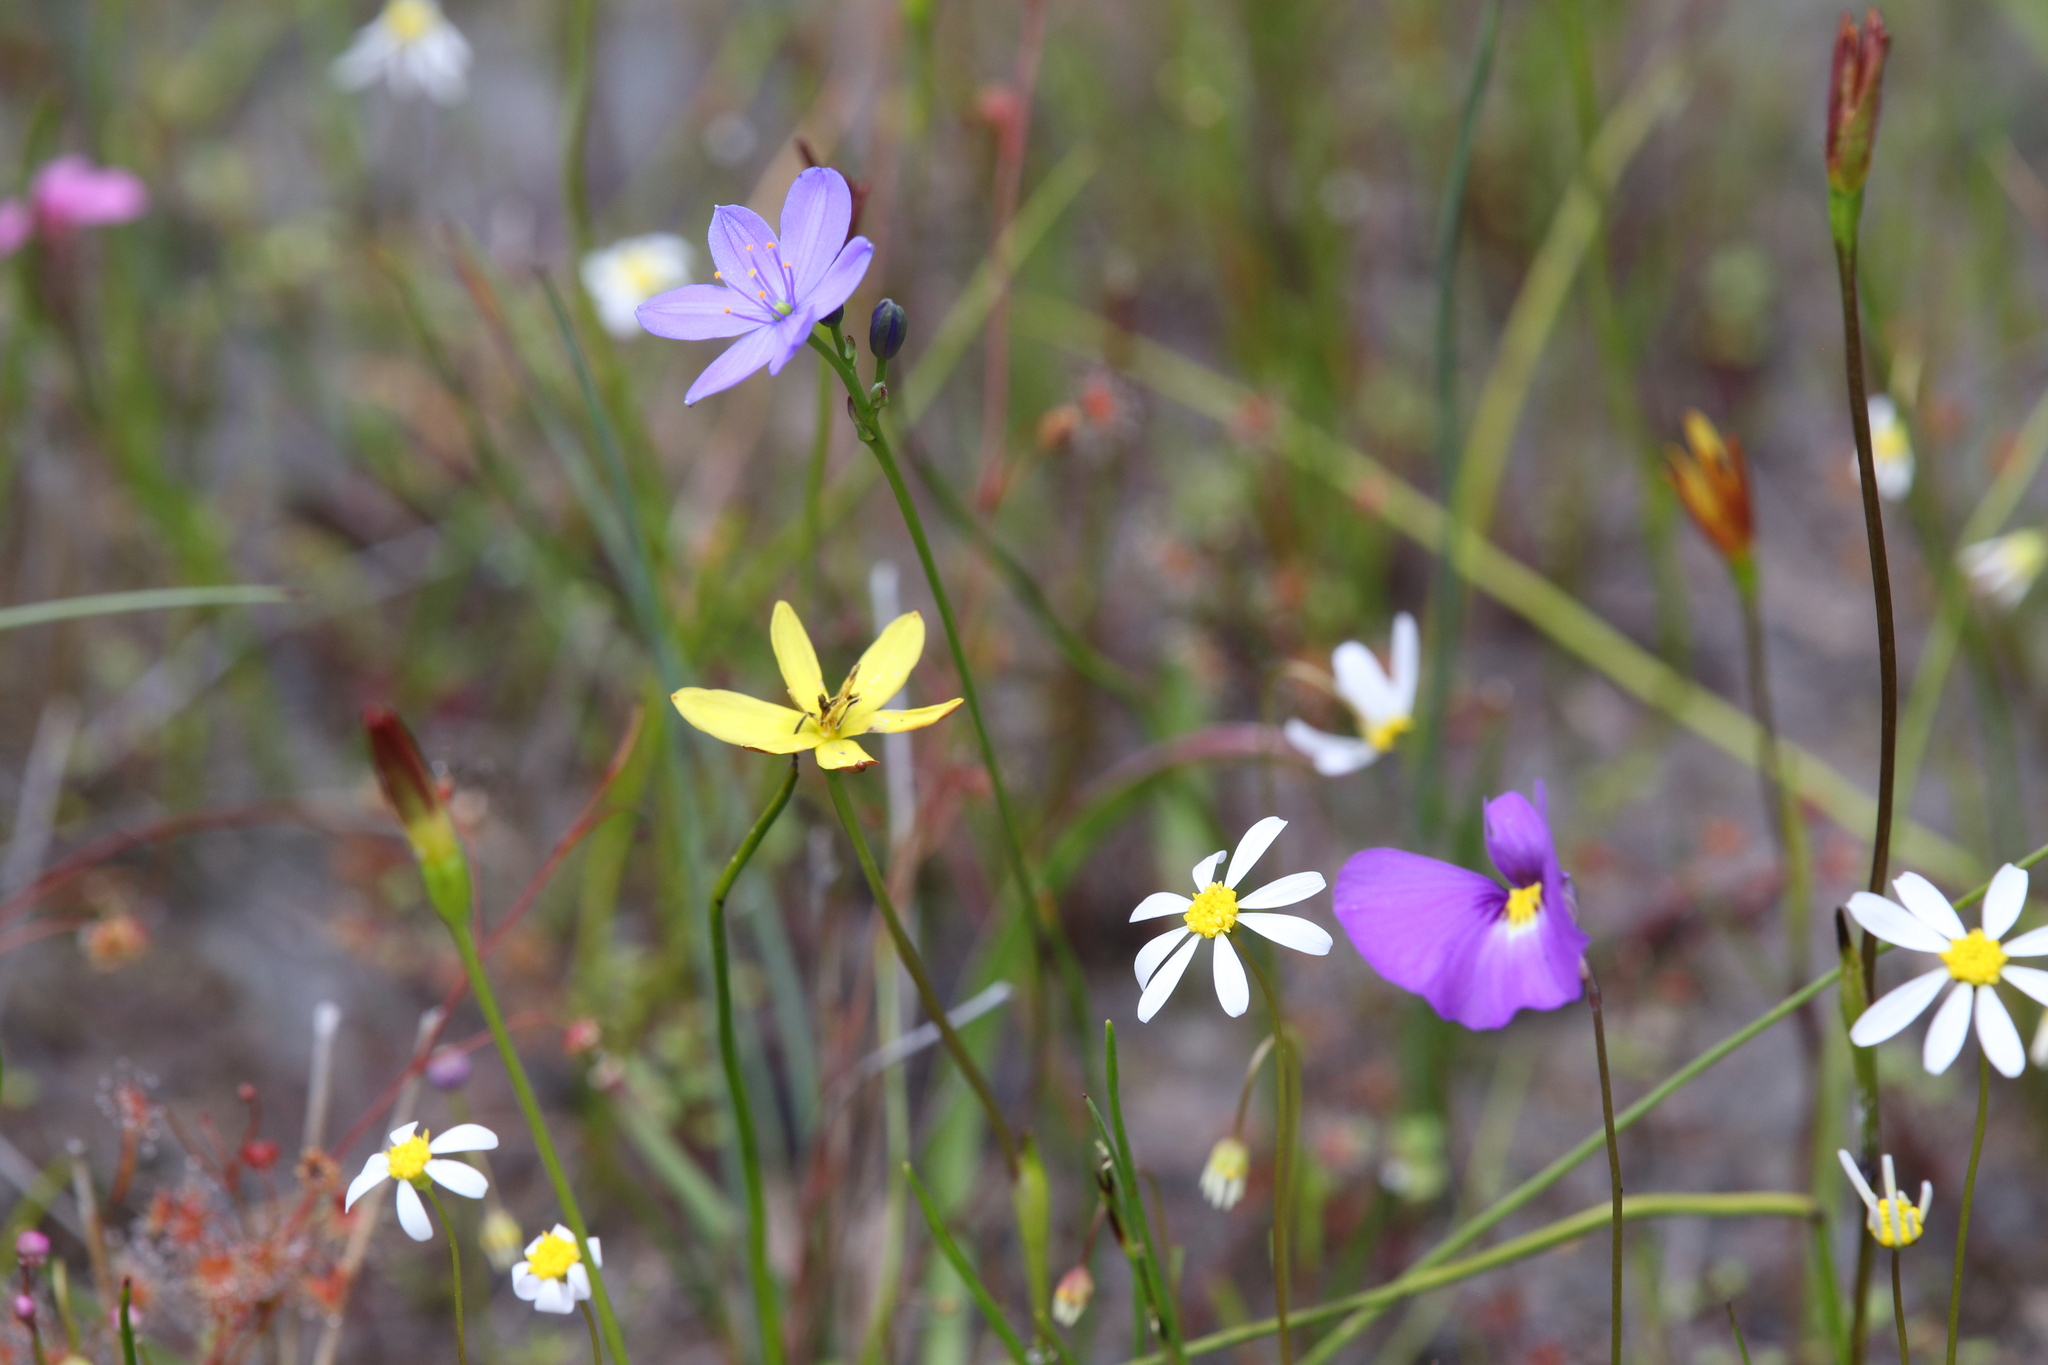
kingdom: Plantae
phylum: Tracheophyta
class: Liliopsida
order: Asparagales
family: Asphodelaceae
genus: Chamaescilla
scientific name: Chamaescilla corymbosa
